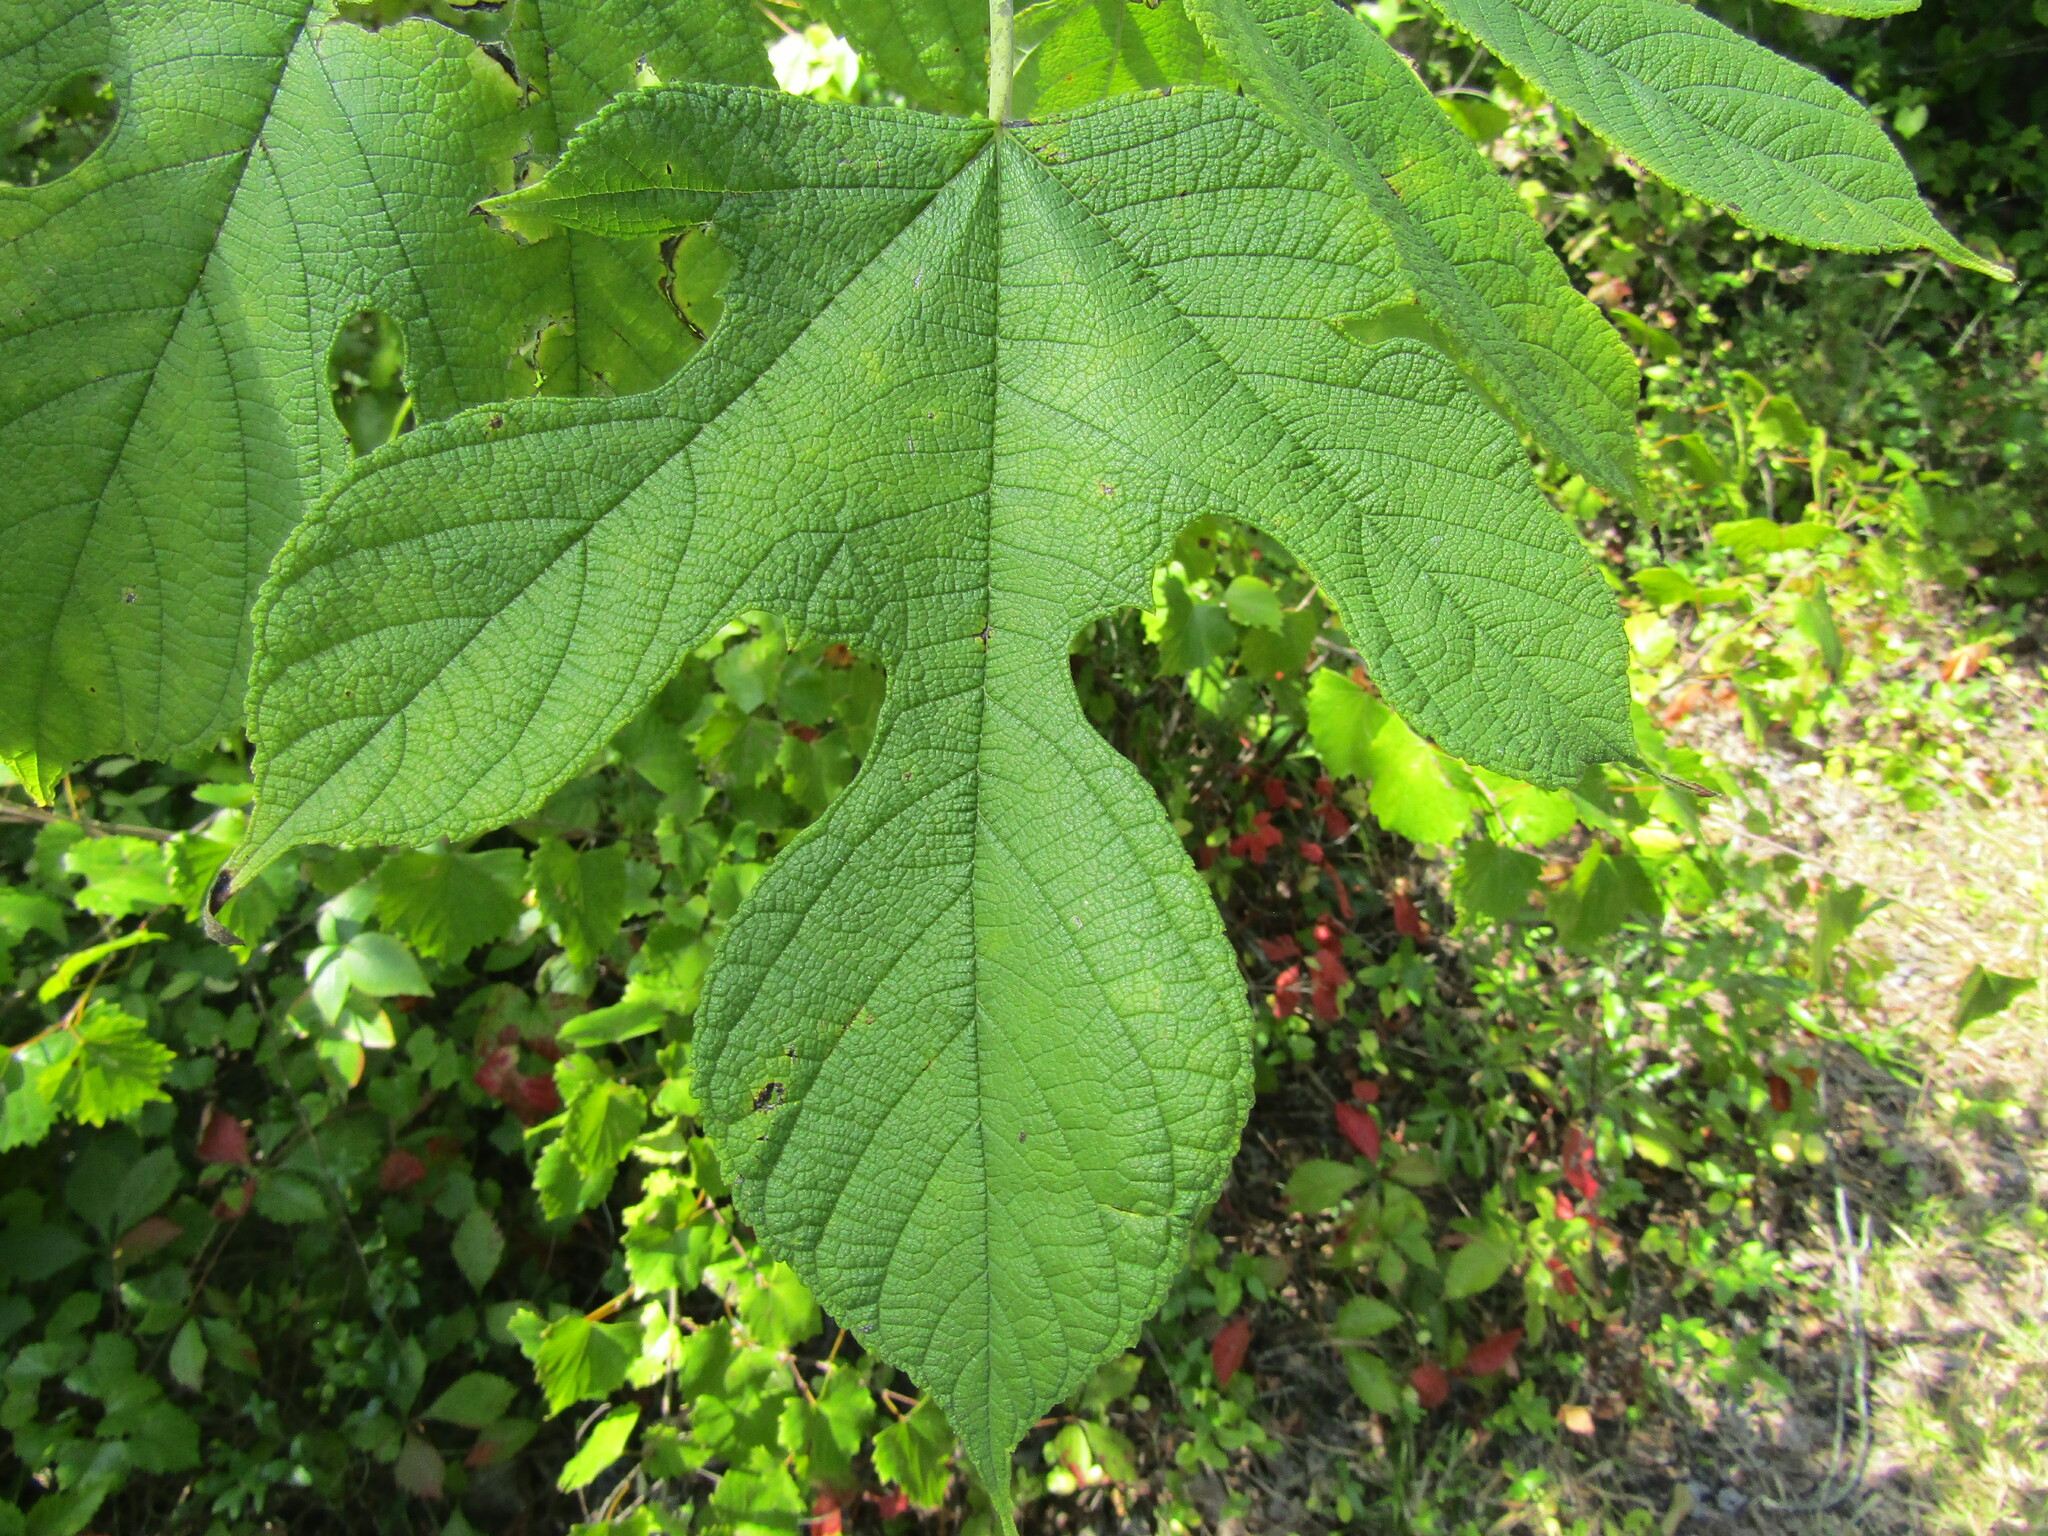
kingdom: Plantae
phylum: Tracheophyta
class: Magnoliopsida
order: Rosales
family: Moraceae
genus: Morus
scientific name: Morus rubra
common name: Red mulberry
